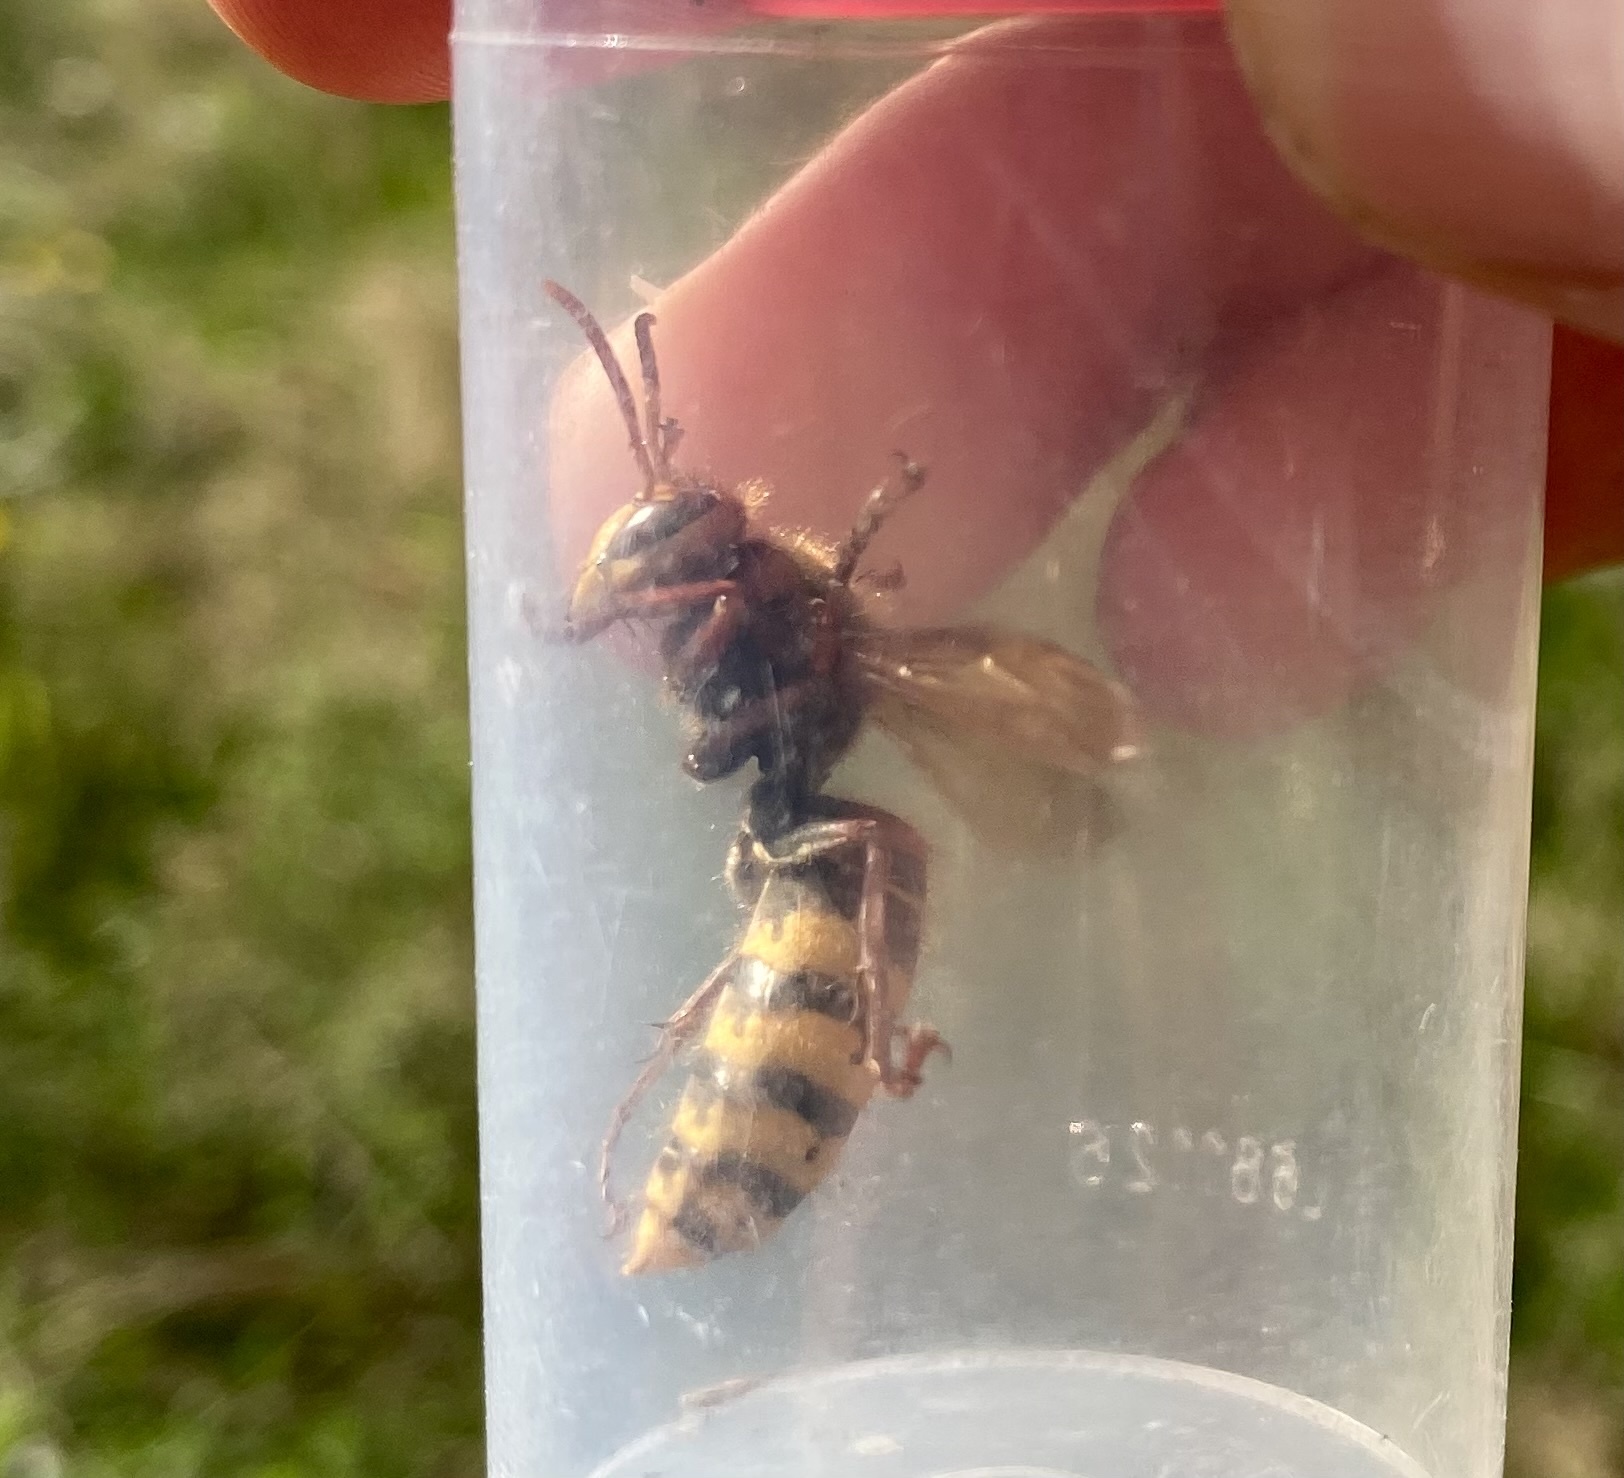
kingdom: Animalia
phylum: Arthropoda
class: Insecta
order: Hymenoptera
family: Vespidae
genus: Vespa
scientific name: Vespa crabro
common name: Hornet
